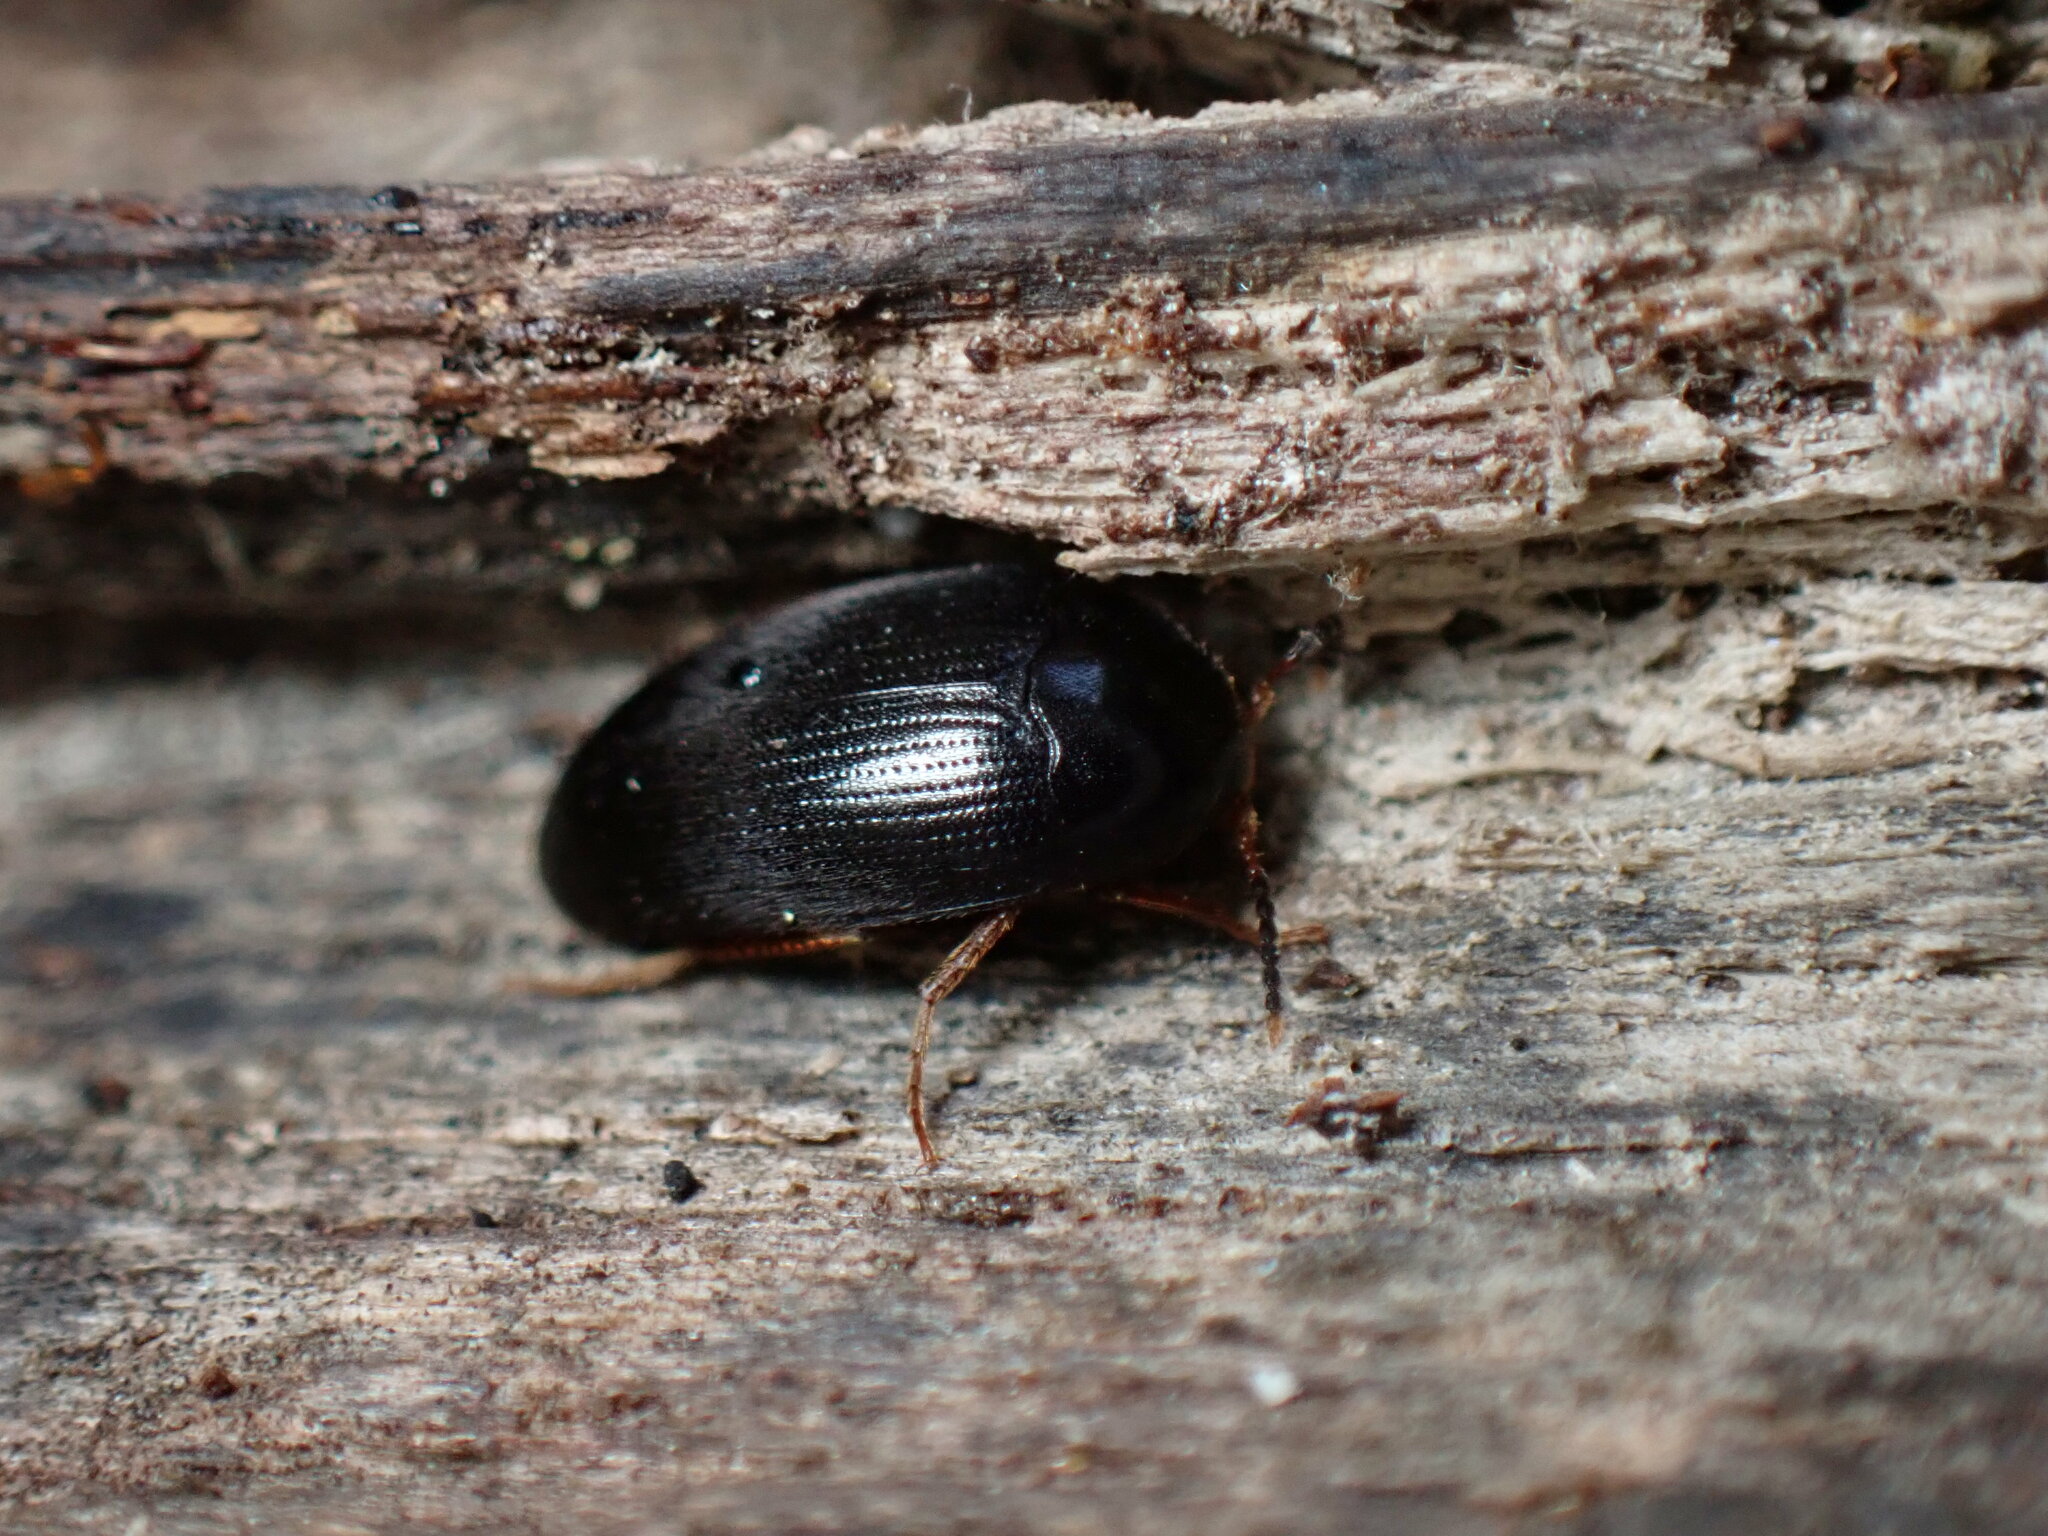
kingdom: Animalia
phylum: Arthropoda
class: Insecta
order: Coleoptera
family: Tetratomidae
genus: Eustrophopsis
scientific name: Eustrophopsis bicolor
